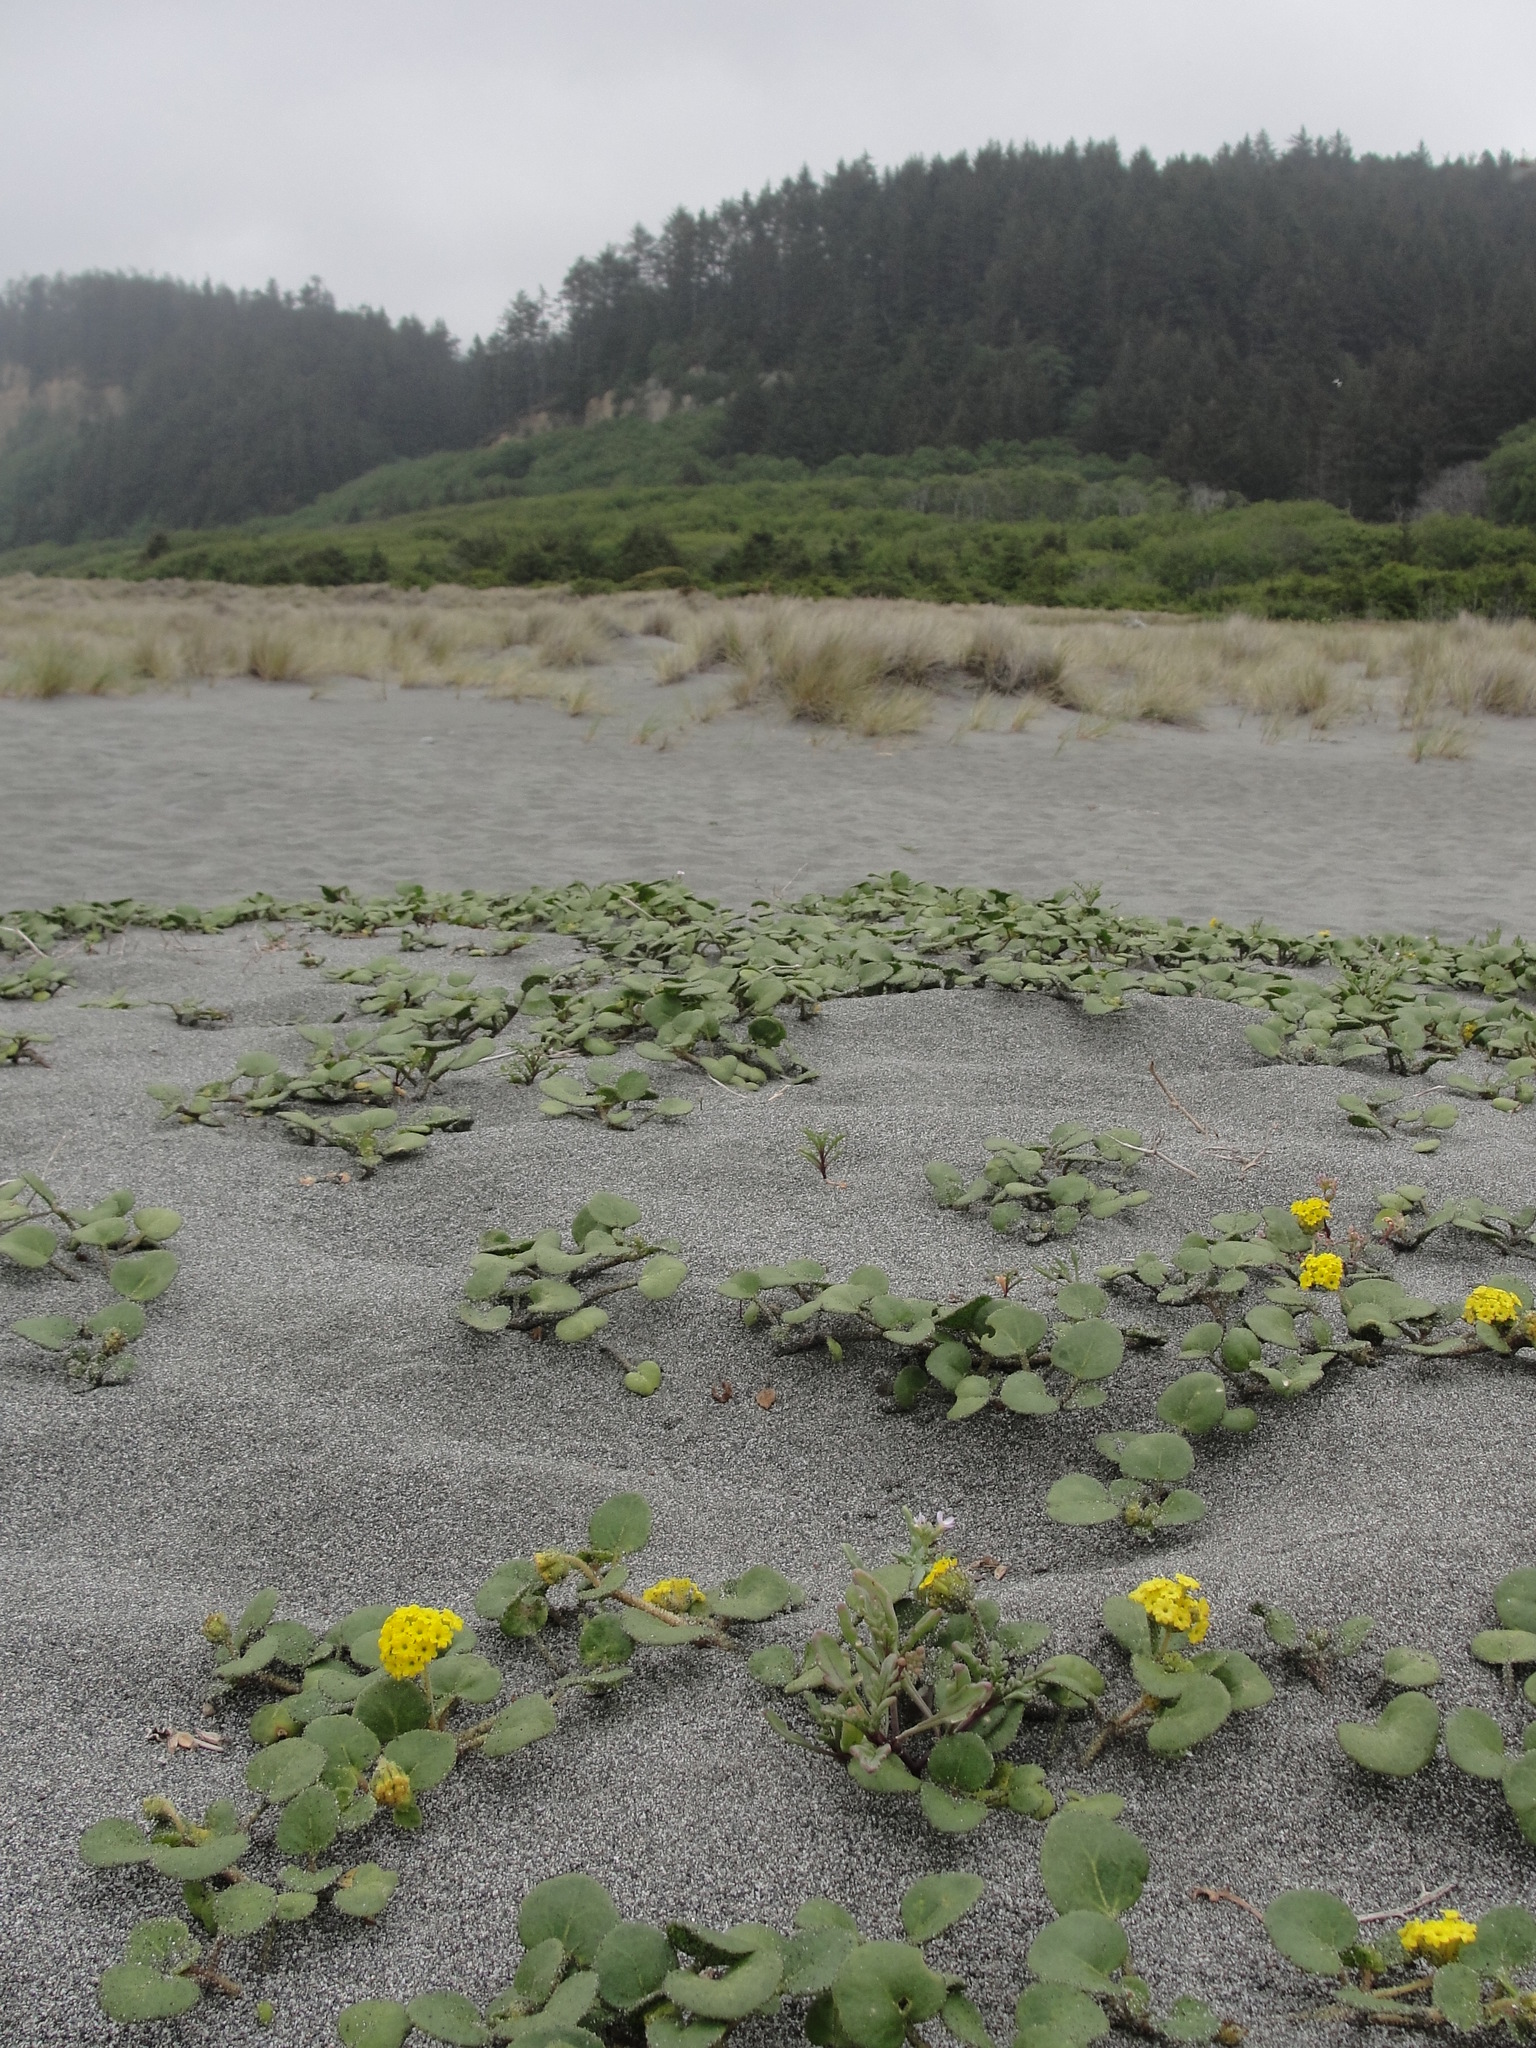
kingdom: Plantae
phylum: Tracheophyta
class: Magnoliopsida
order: Caryophyllales
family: Nyctaginaceae
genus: Abronia
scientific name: Abronia latifolia
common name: Yellow sand-verbena
